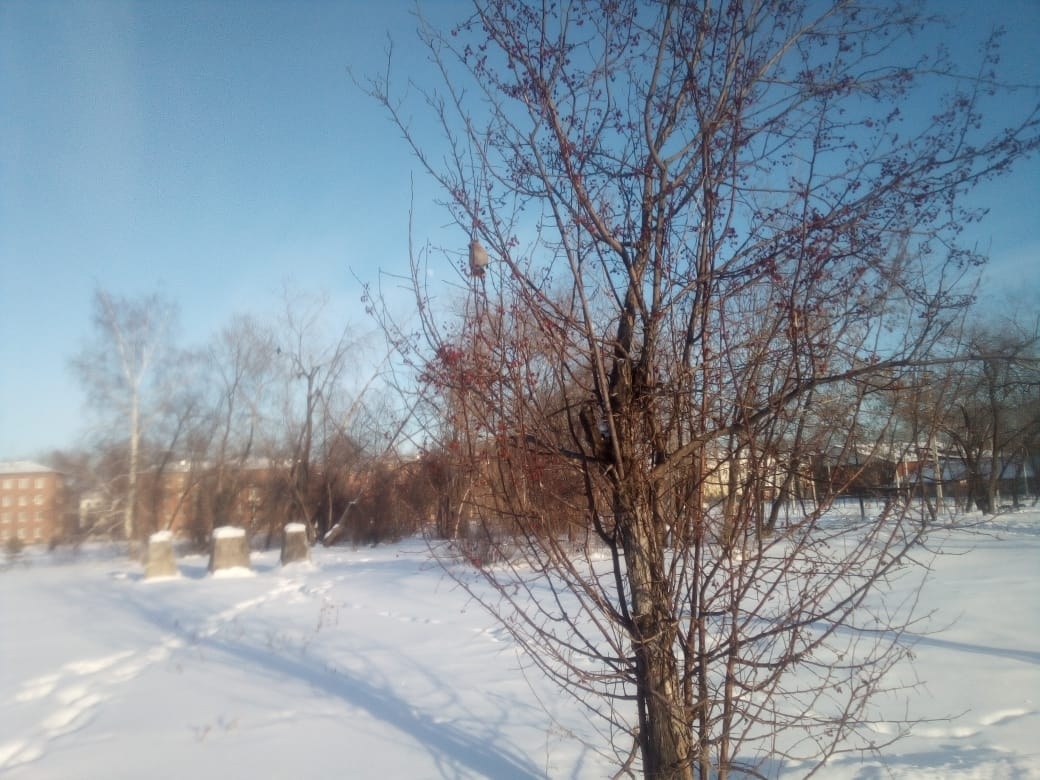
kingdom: Animalia
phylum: Chordata
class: Aves
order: Passeriformes
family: Bombycillidae
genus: Bombycilla
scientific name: Bombycilla garrulus
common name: Bohemian waxwing
